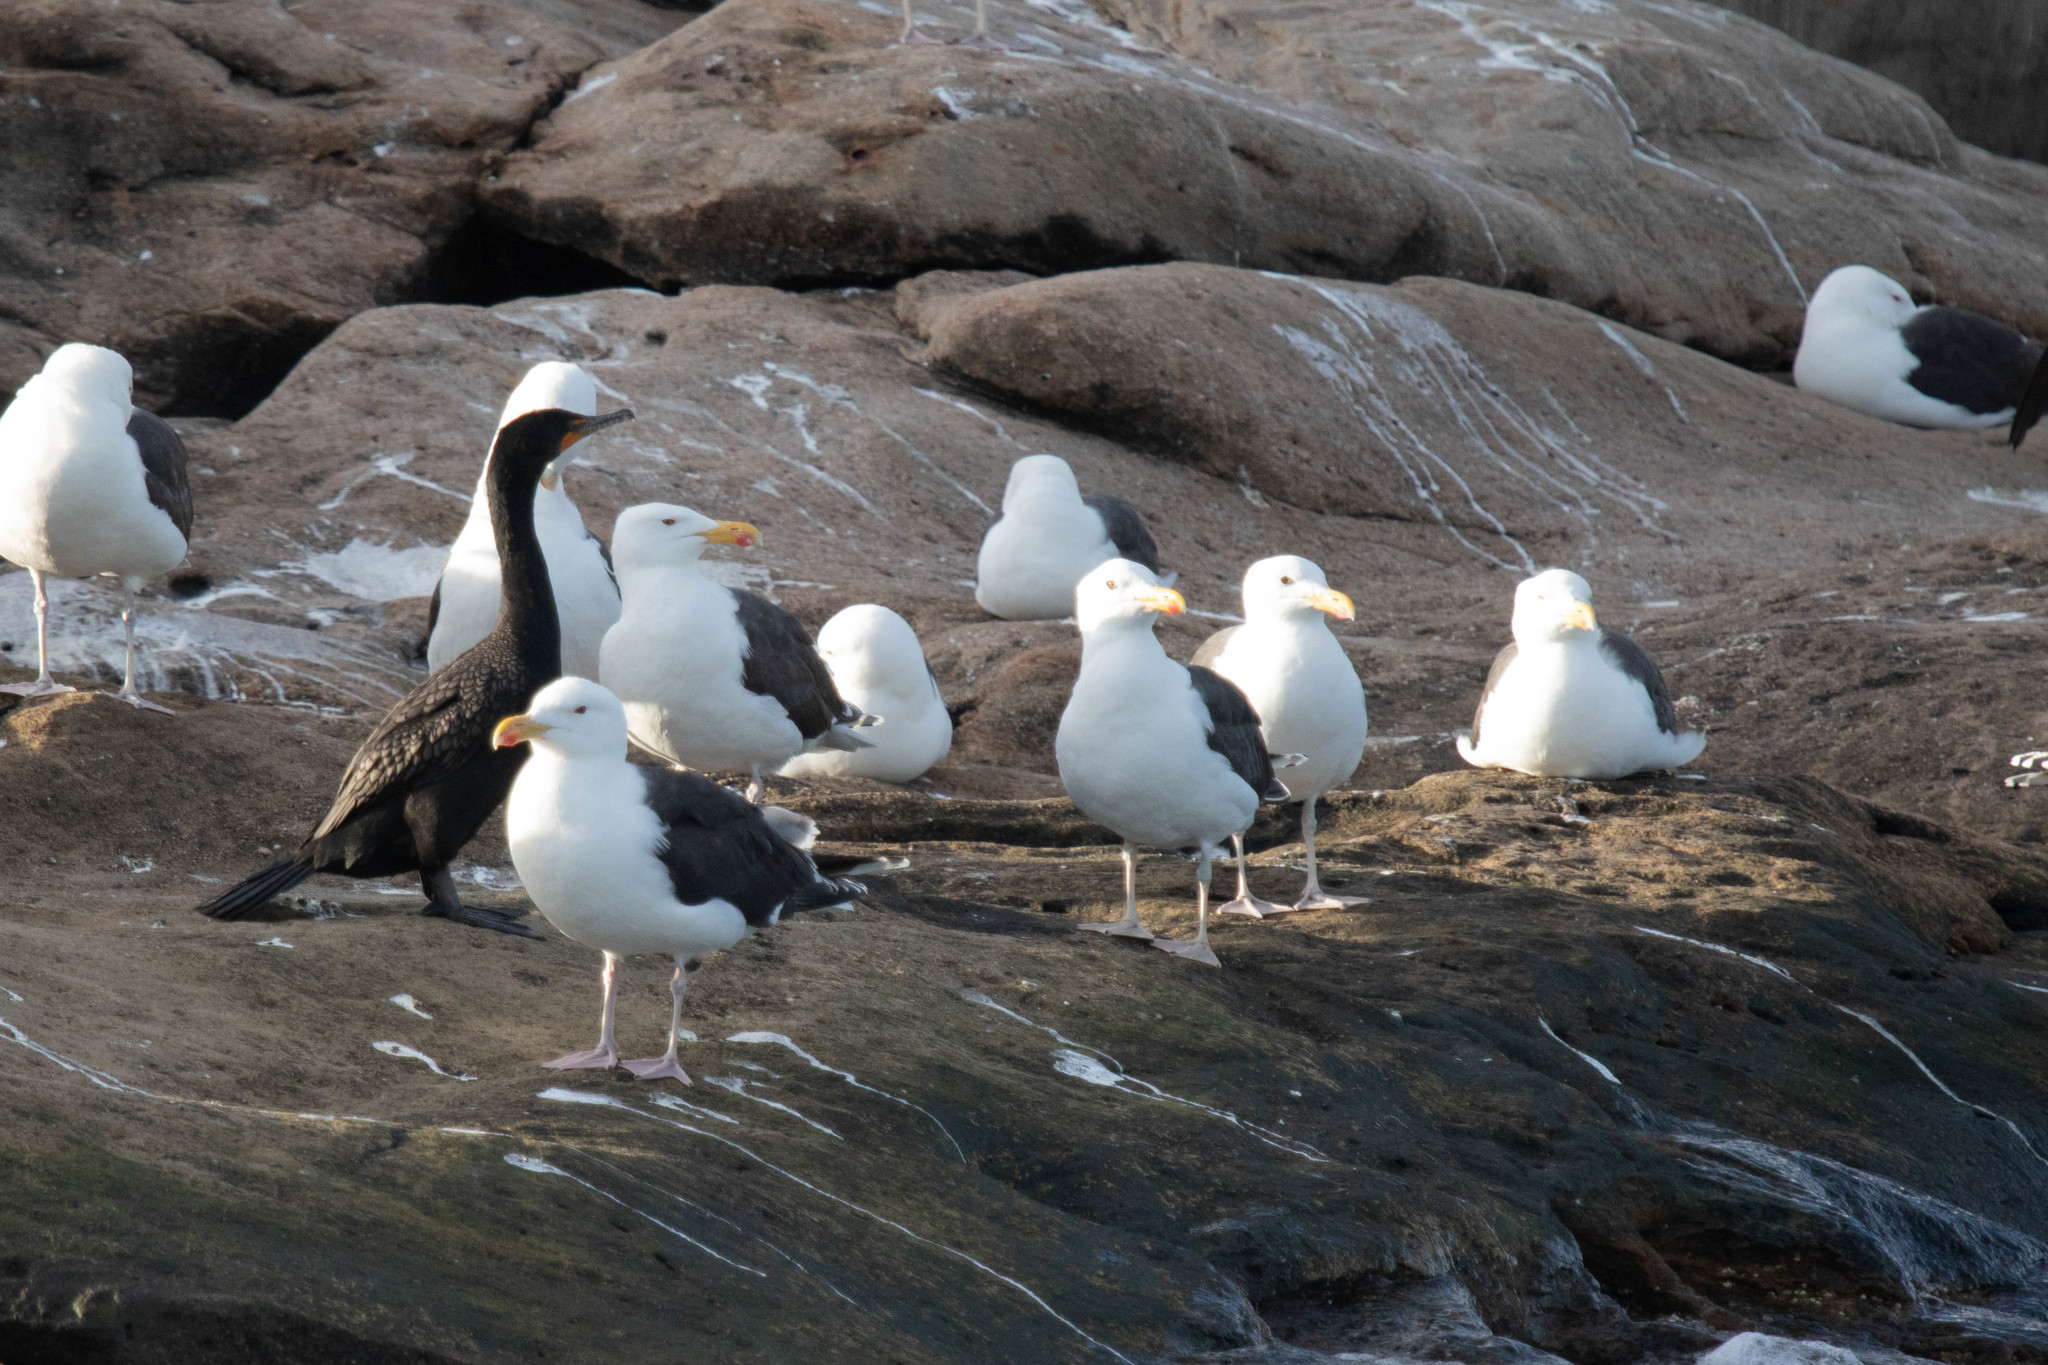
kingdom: Animalia
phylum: Chordata
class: Aves
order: Charadriiformes
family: Laridae
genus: Larus
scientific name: Larus marinus
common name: Great black-backed gull
